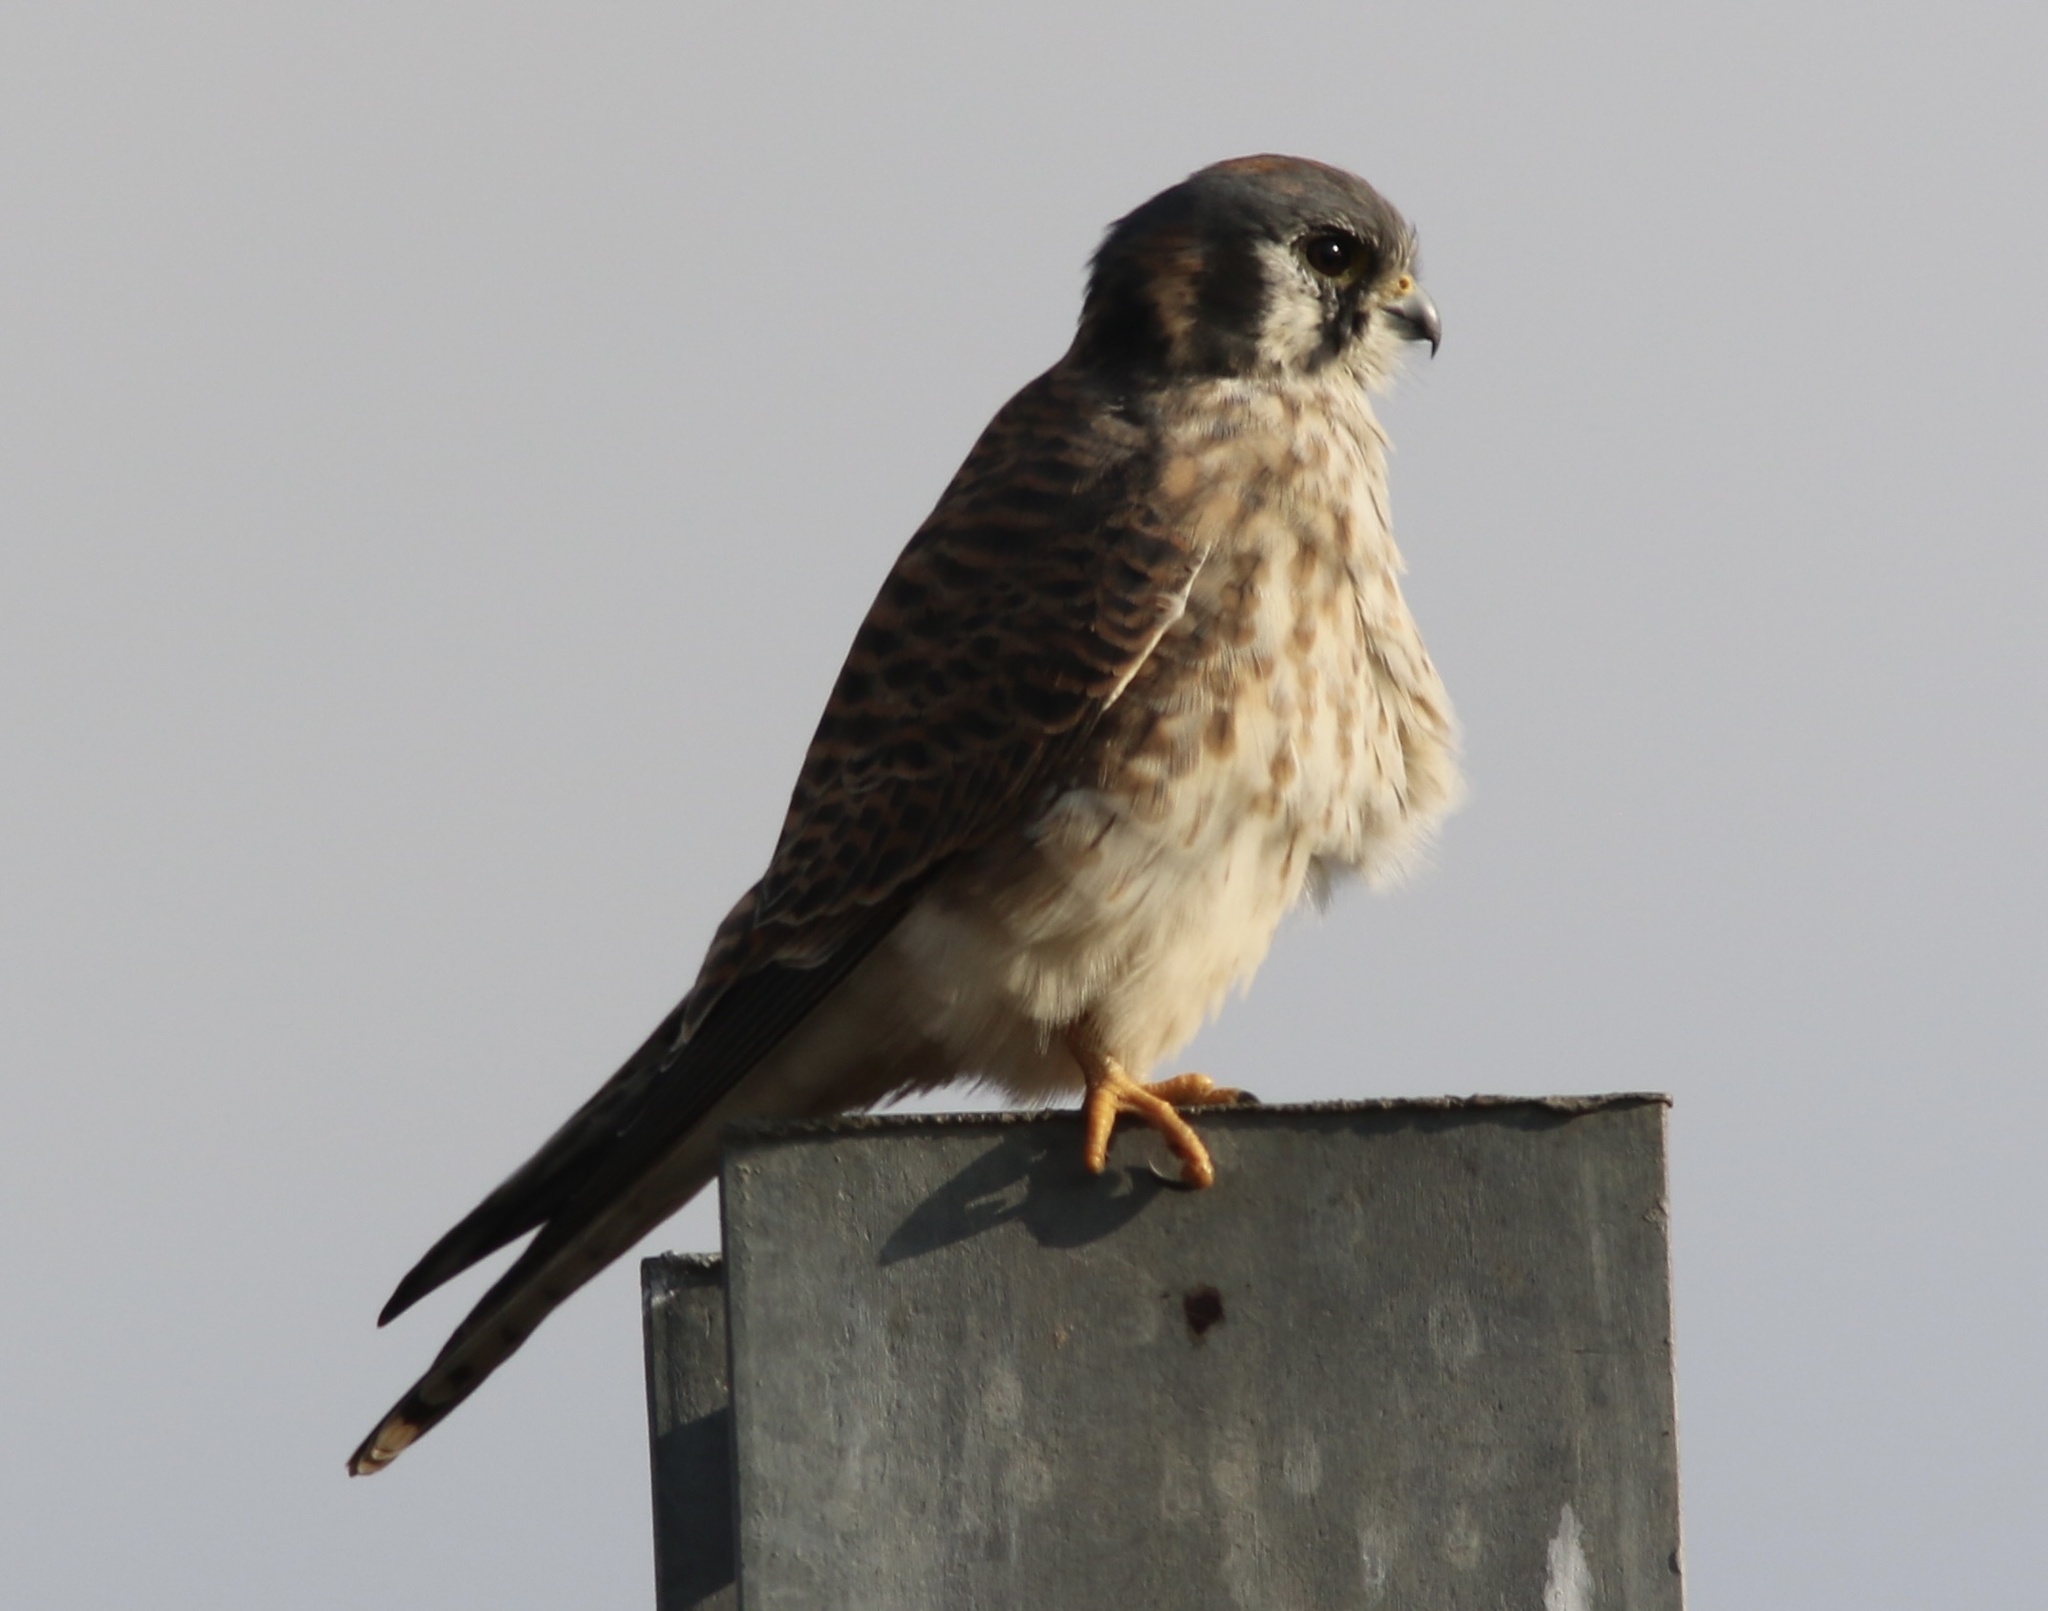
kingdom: Animalia
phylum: Chordata
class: Aves
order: Falconiformes
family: Falconidae
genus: Falco
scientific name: Falco sparverius
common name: American kestrel
